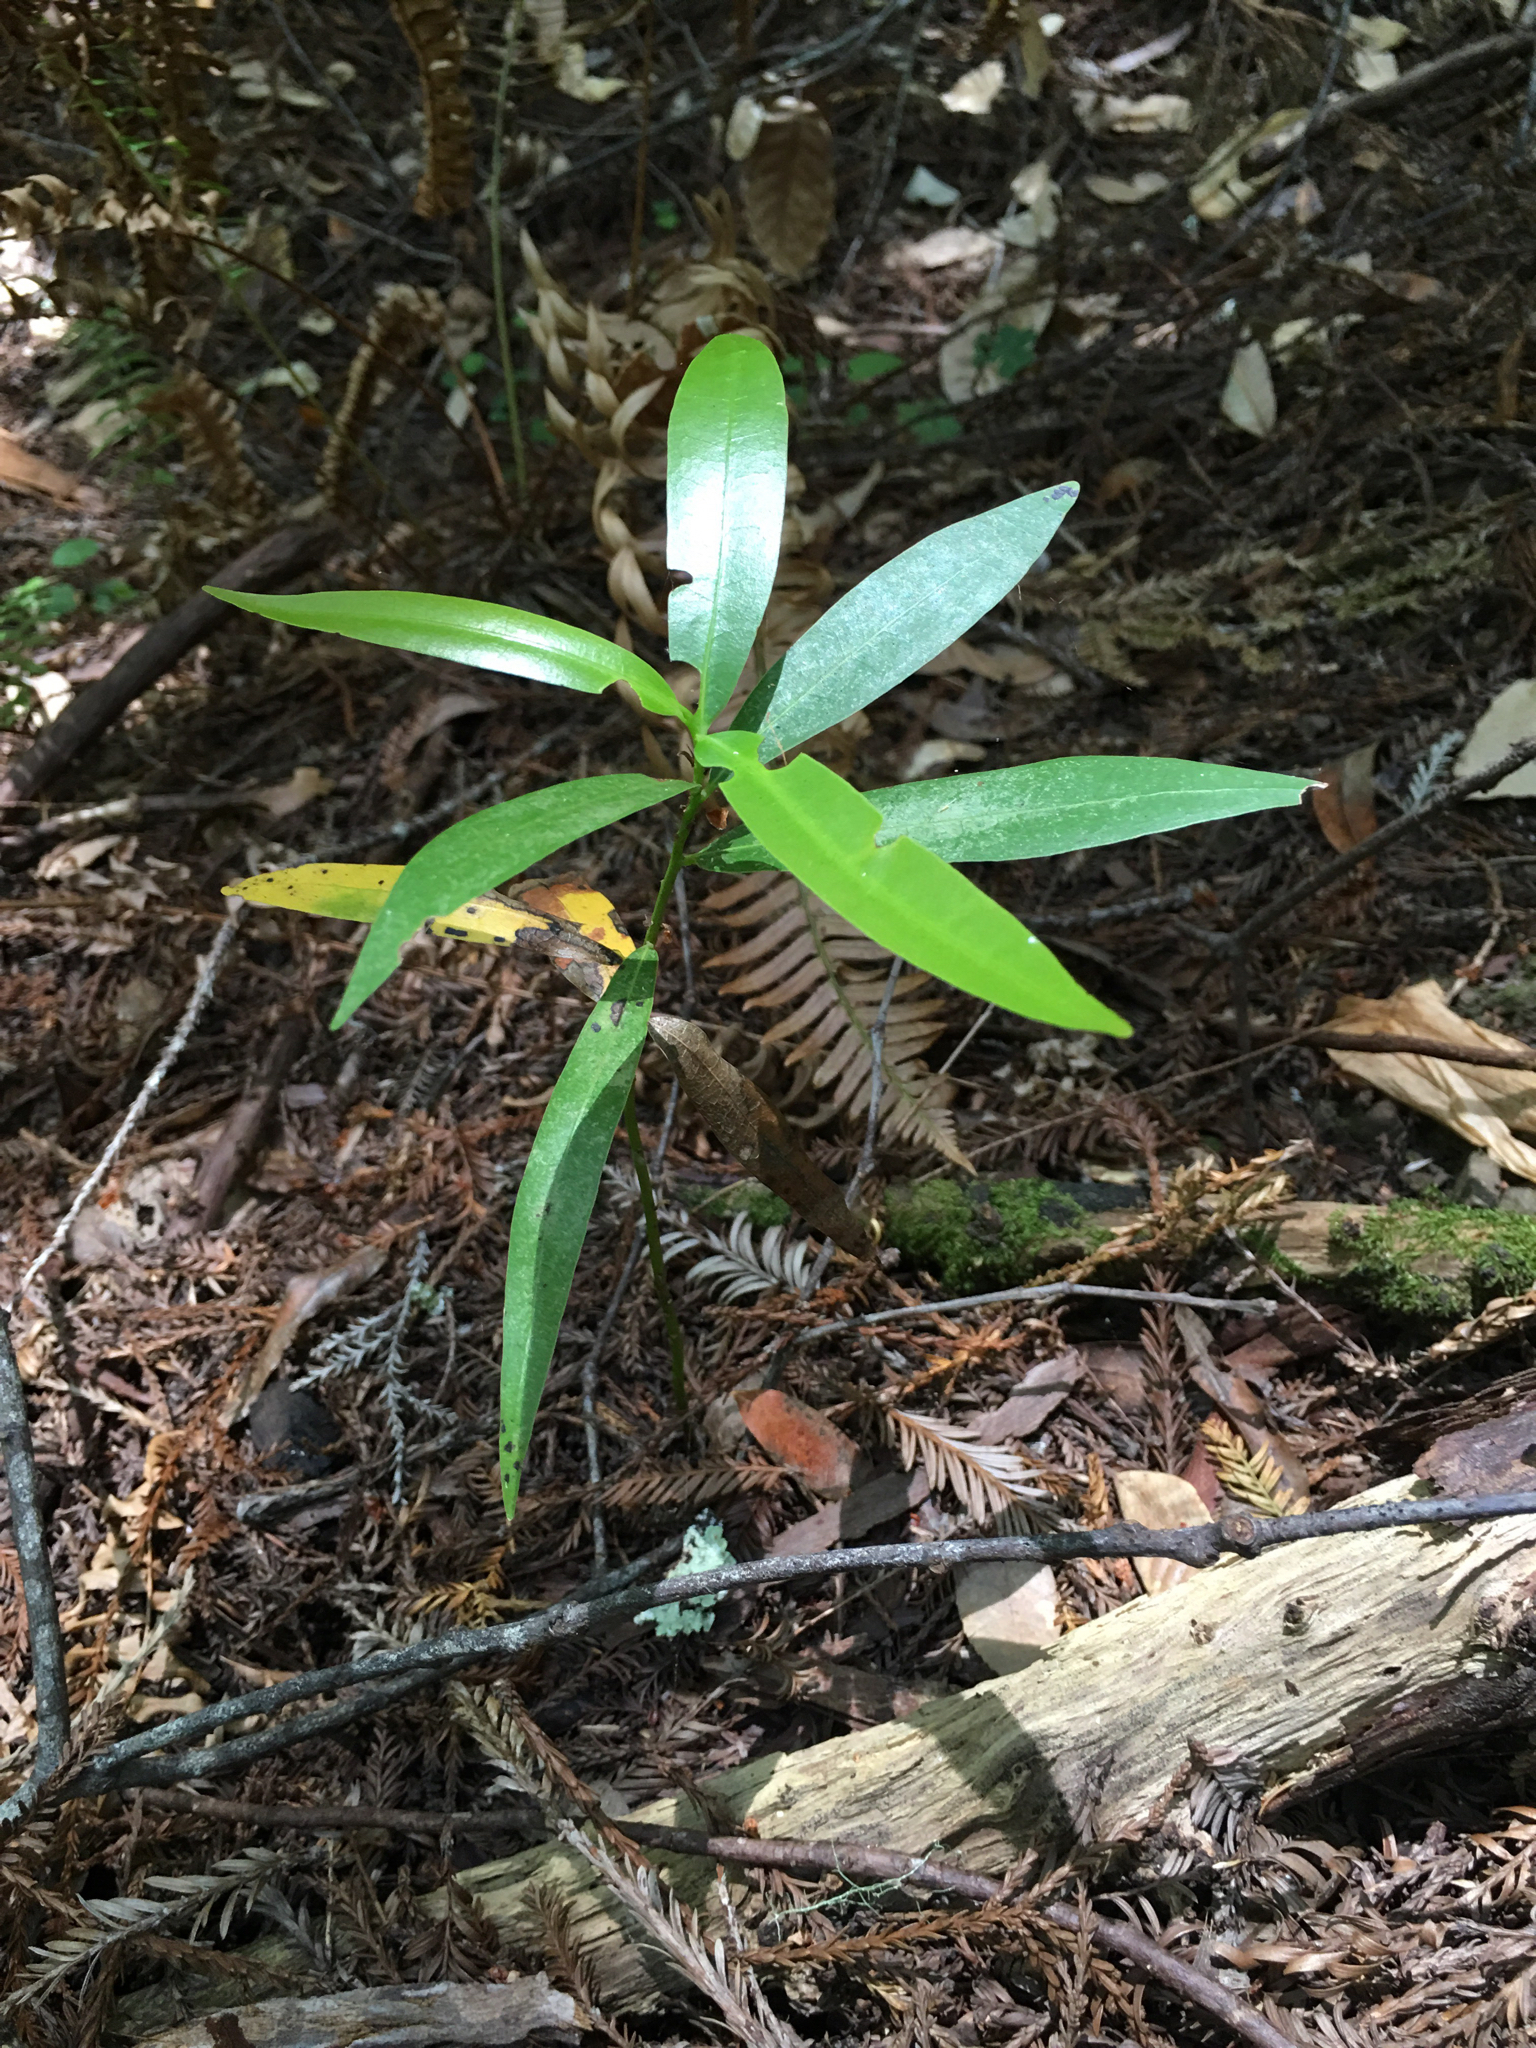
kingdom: Plantae
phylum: Tracheophyta
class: Magnoliopsida
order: Laurales
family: Lauraceae
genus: Umbellularia
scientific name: Umbellularia californica
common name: California bay
